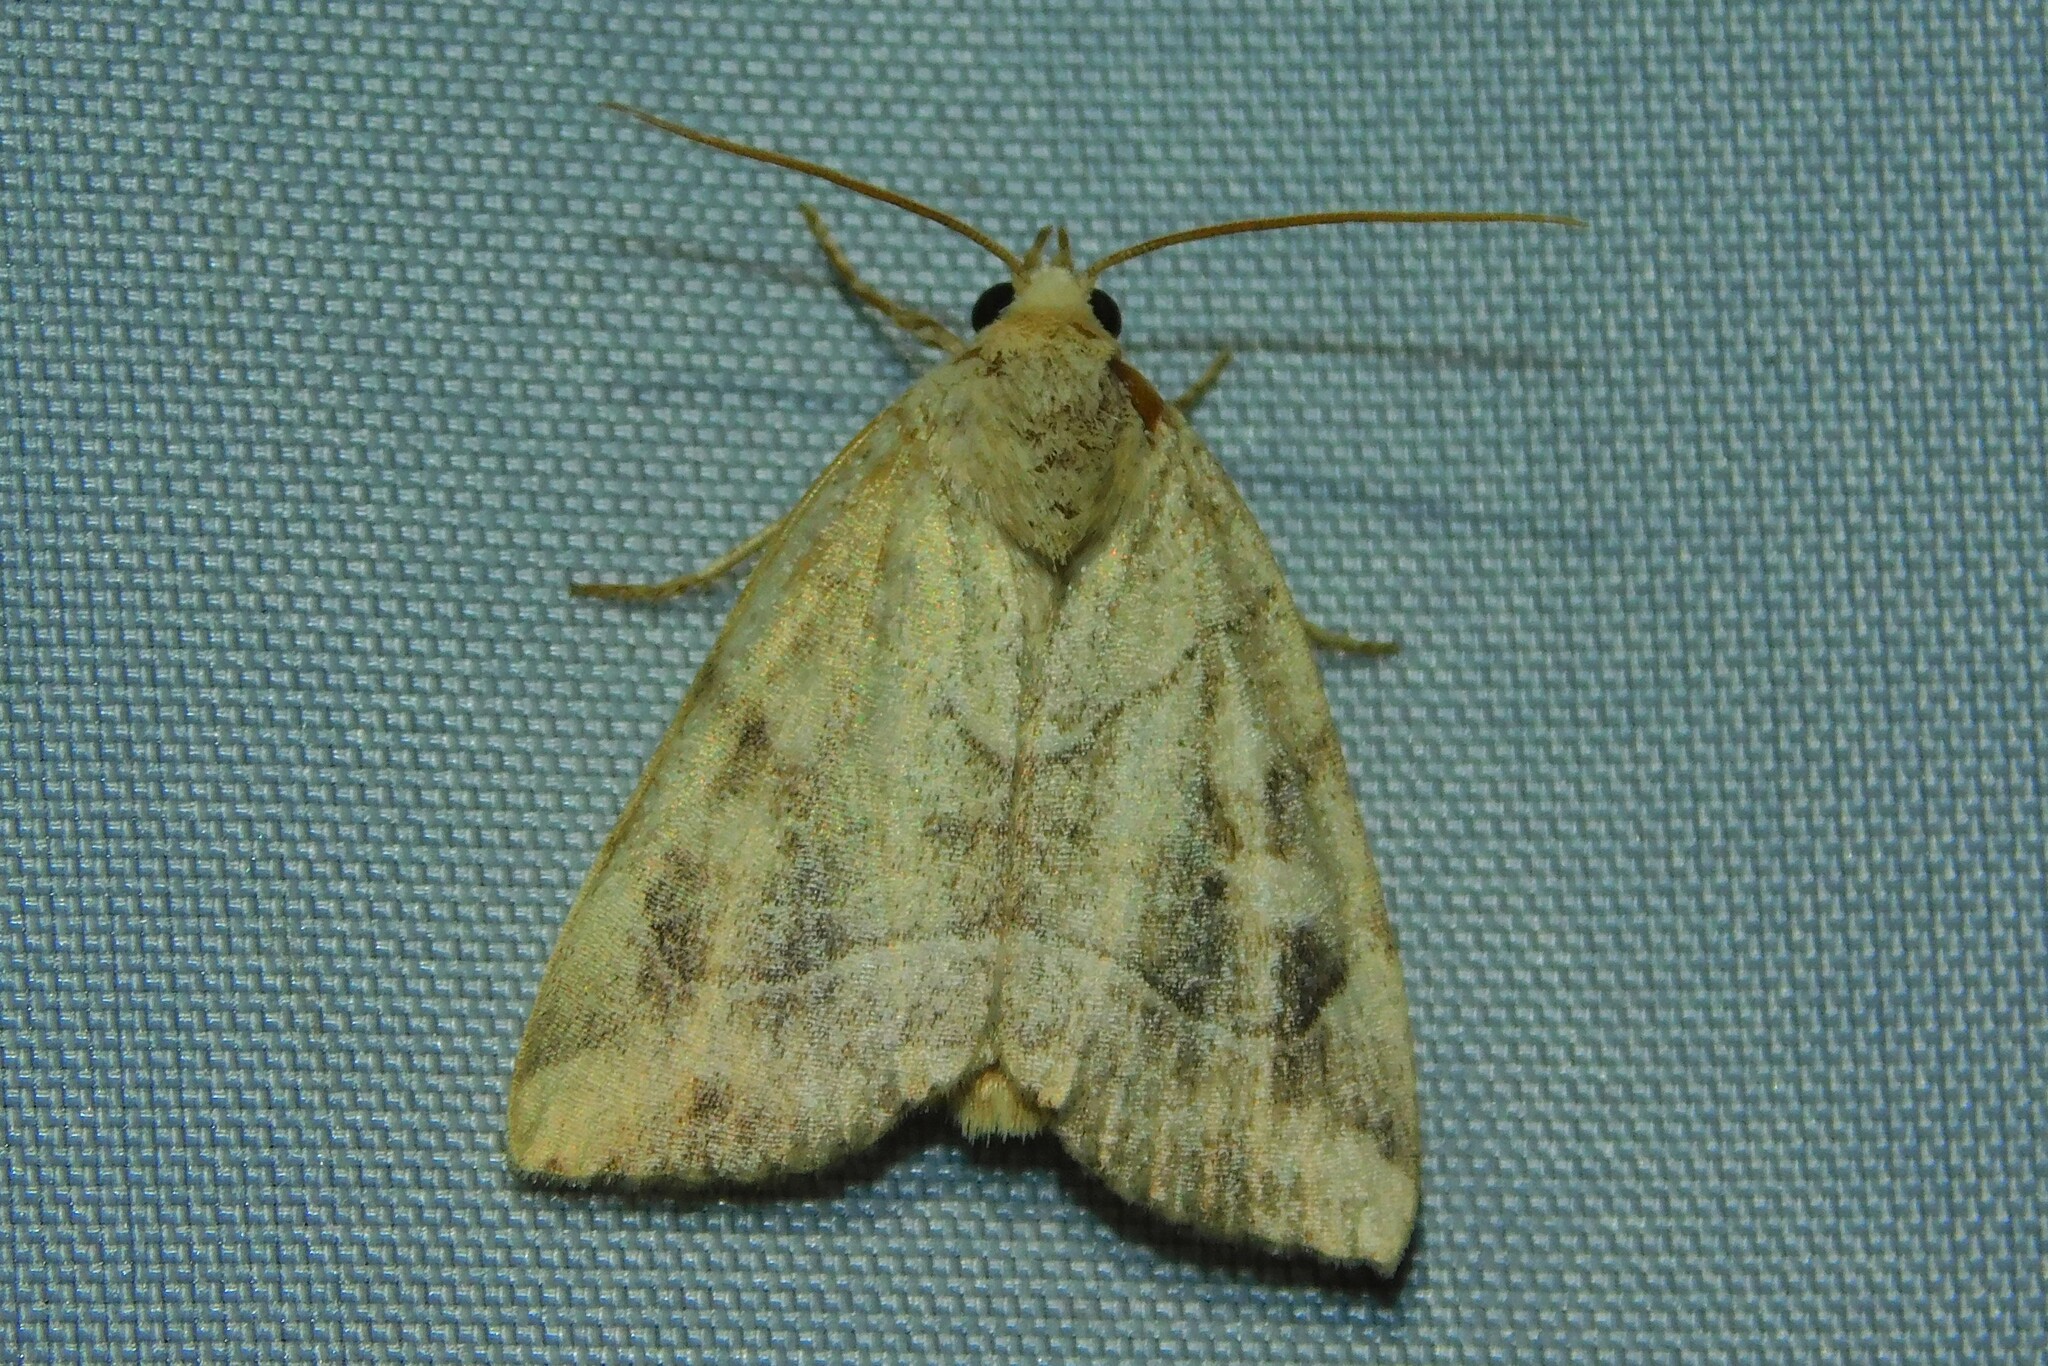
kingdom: Animalia
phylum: Arthropoda
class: Insecta
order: Lepidoptera
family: Noctuidae
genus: Cosmia
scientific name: Cosmia trapezina
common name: Dun-bar
